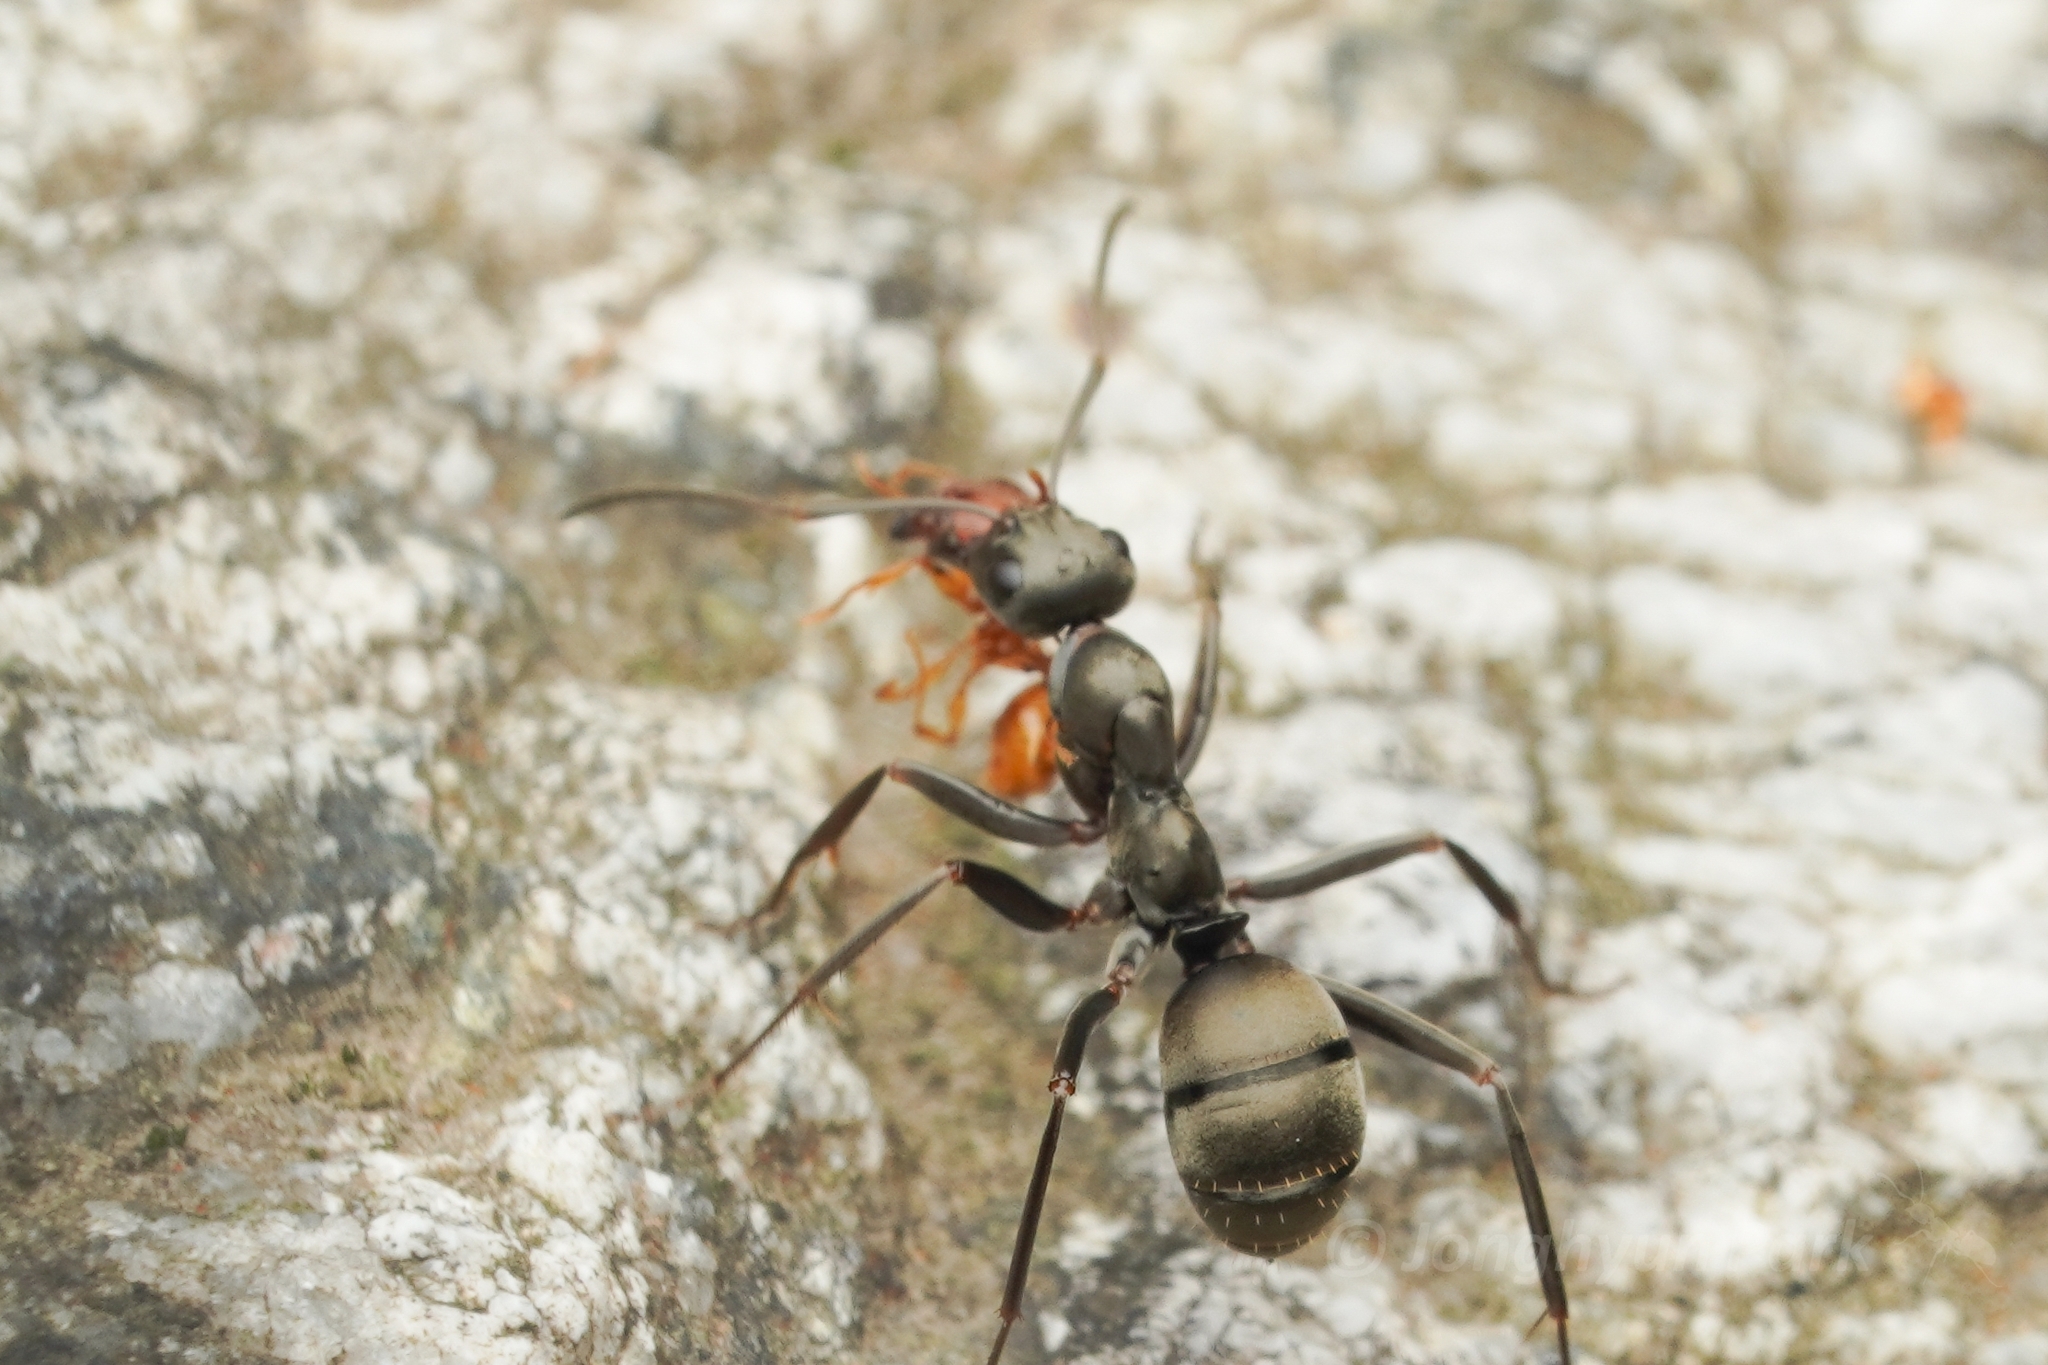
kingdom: Animalia
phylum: Arthropoda
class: Insecta
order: Hymenoptera
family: Formicidae
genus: Formica
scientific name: Formica hayashi
